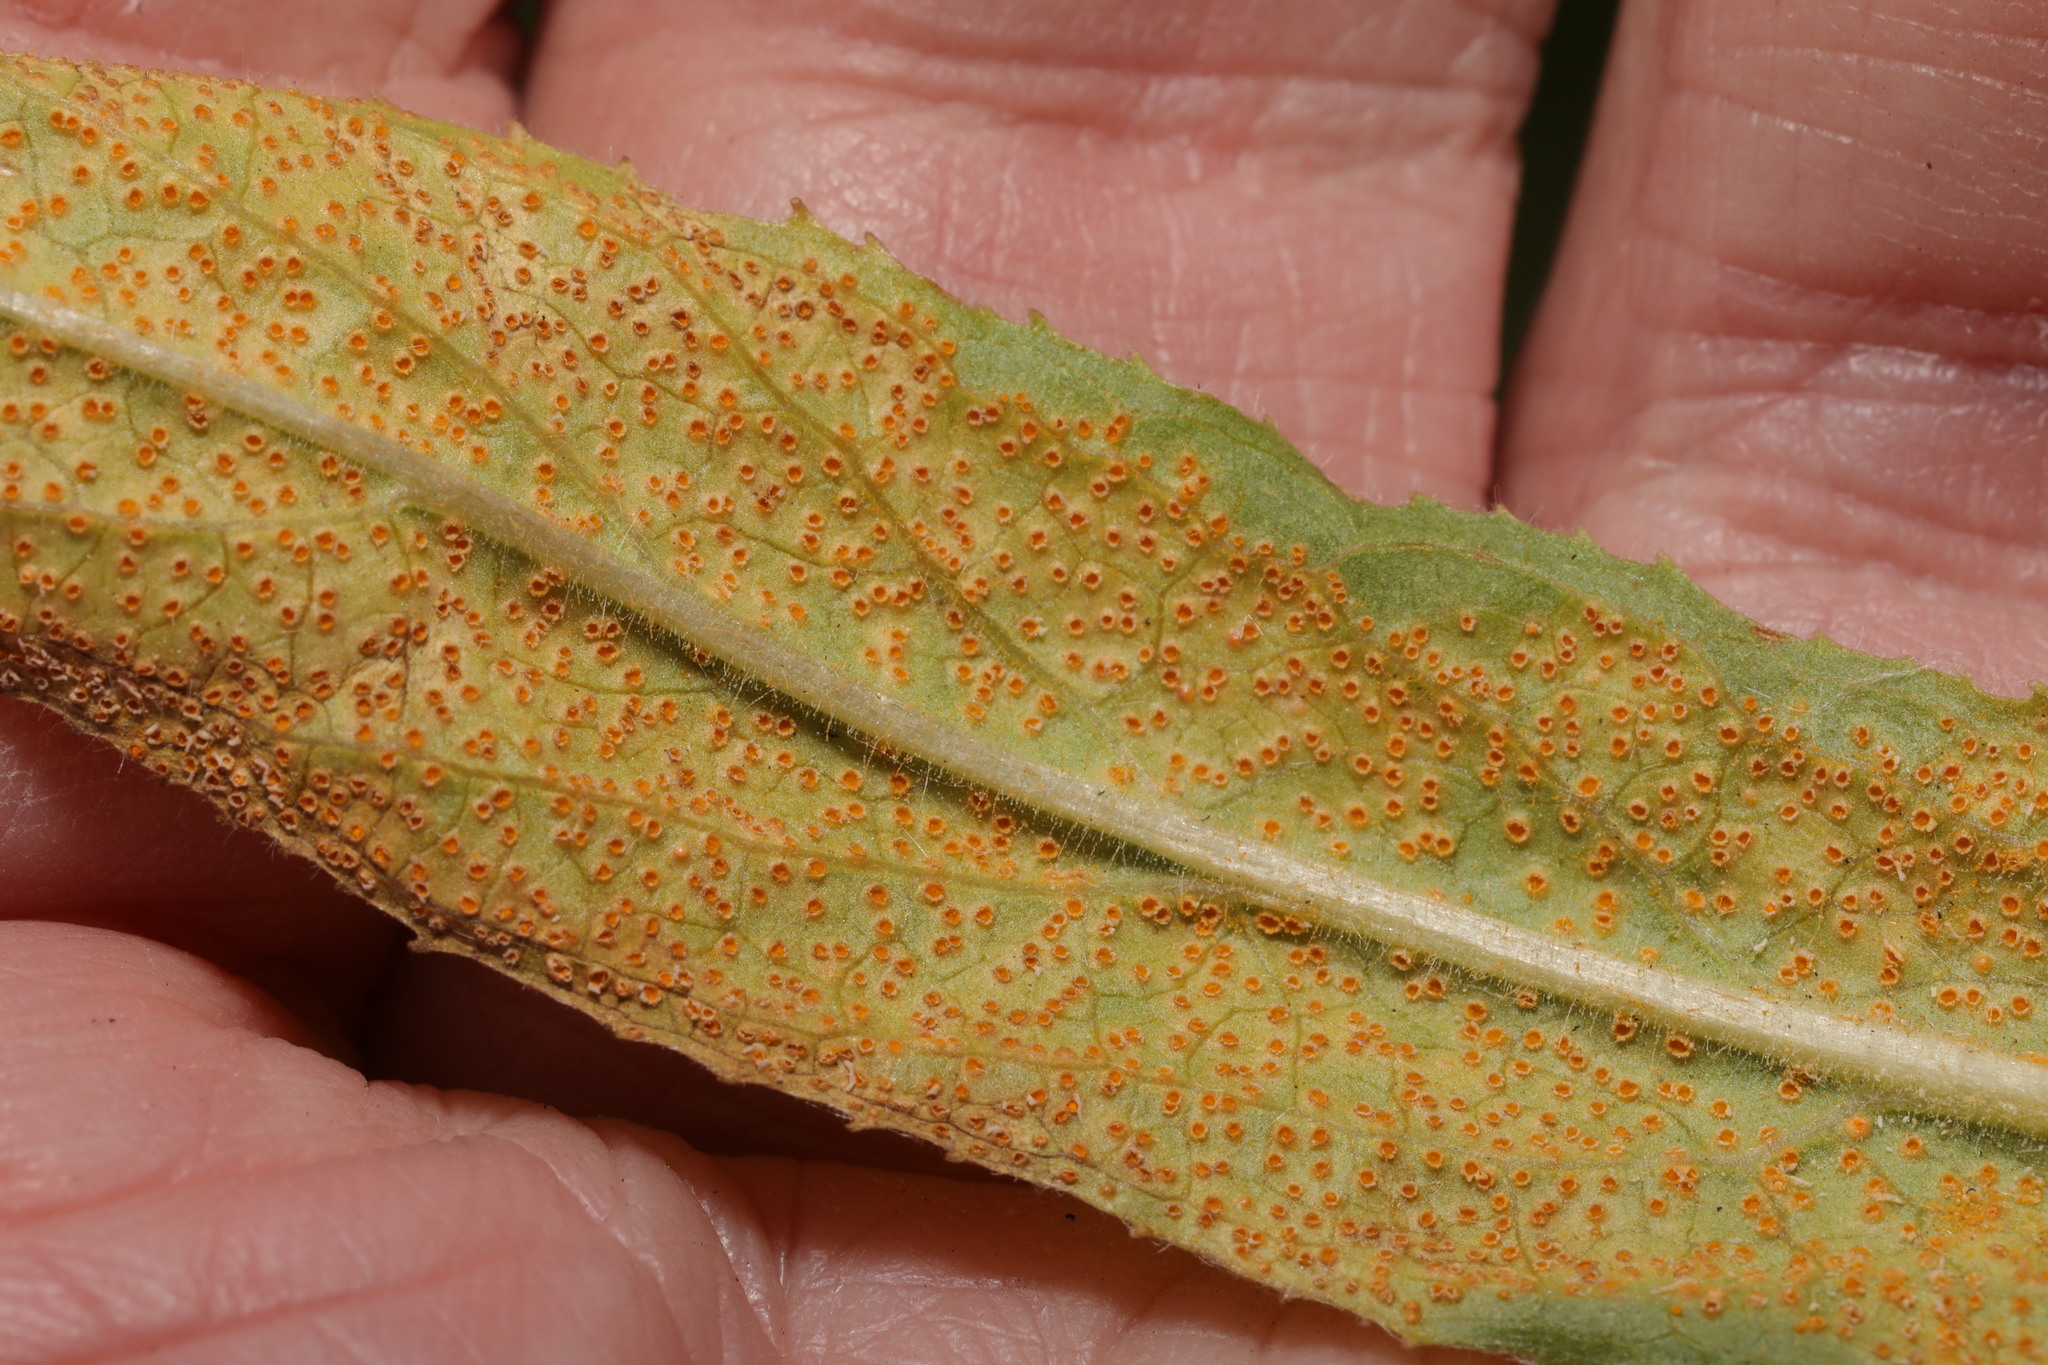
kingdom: Fungi
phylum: Basidiomycota
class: Pucciniomycetes
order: Pucciniales
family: Pucciniaceae
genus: Puccinia
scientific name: Puccinia pulverulenta
